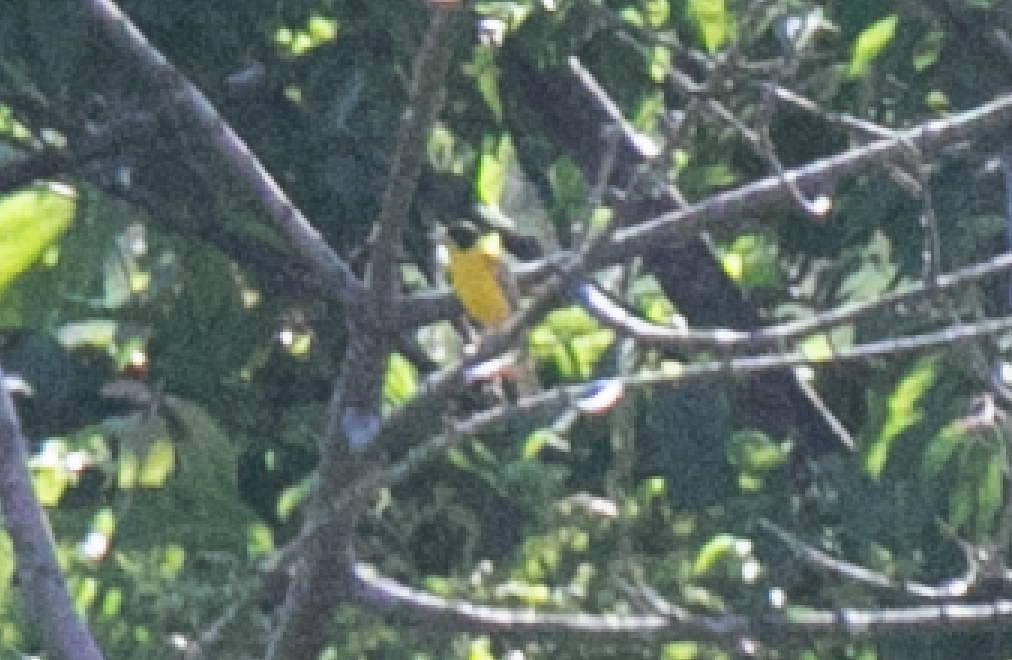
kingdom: Animalia
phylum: Chordata
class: Aves
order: Passeriformes
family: Emberizidae
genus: Emberiza
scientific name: Emberiza melanocephala
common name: Black-headed bunting
